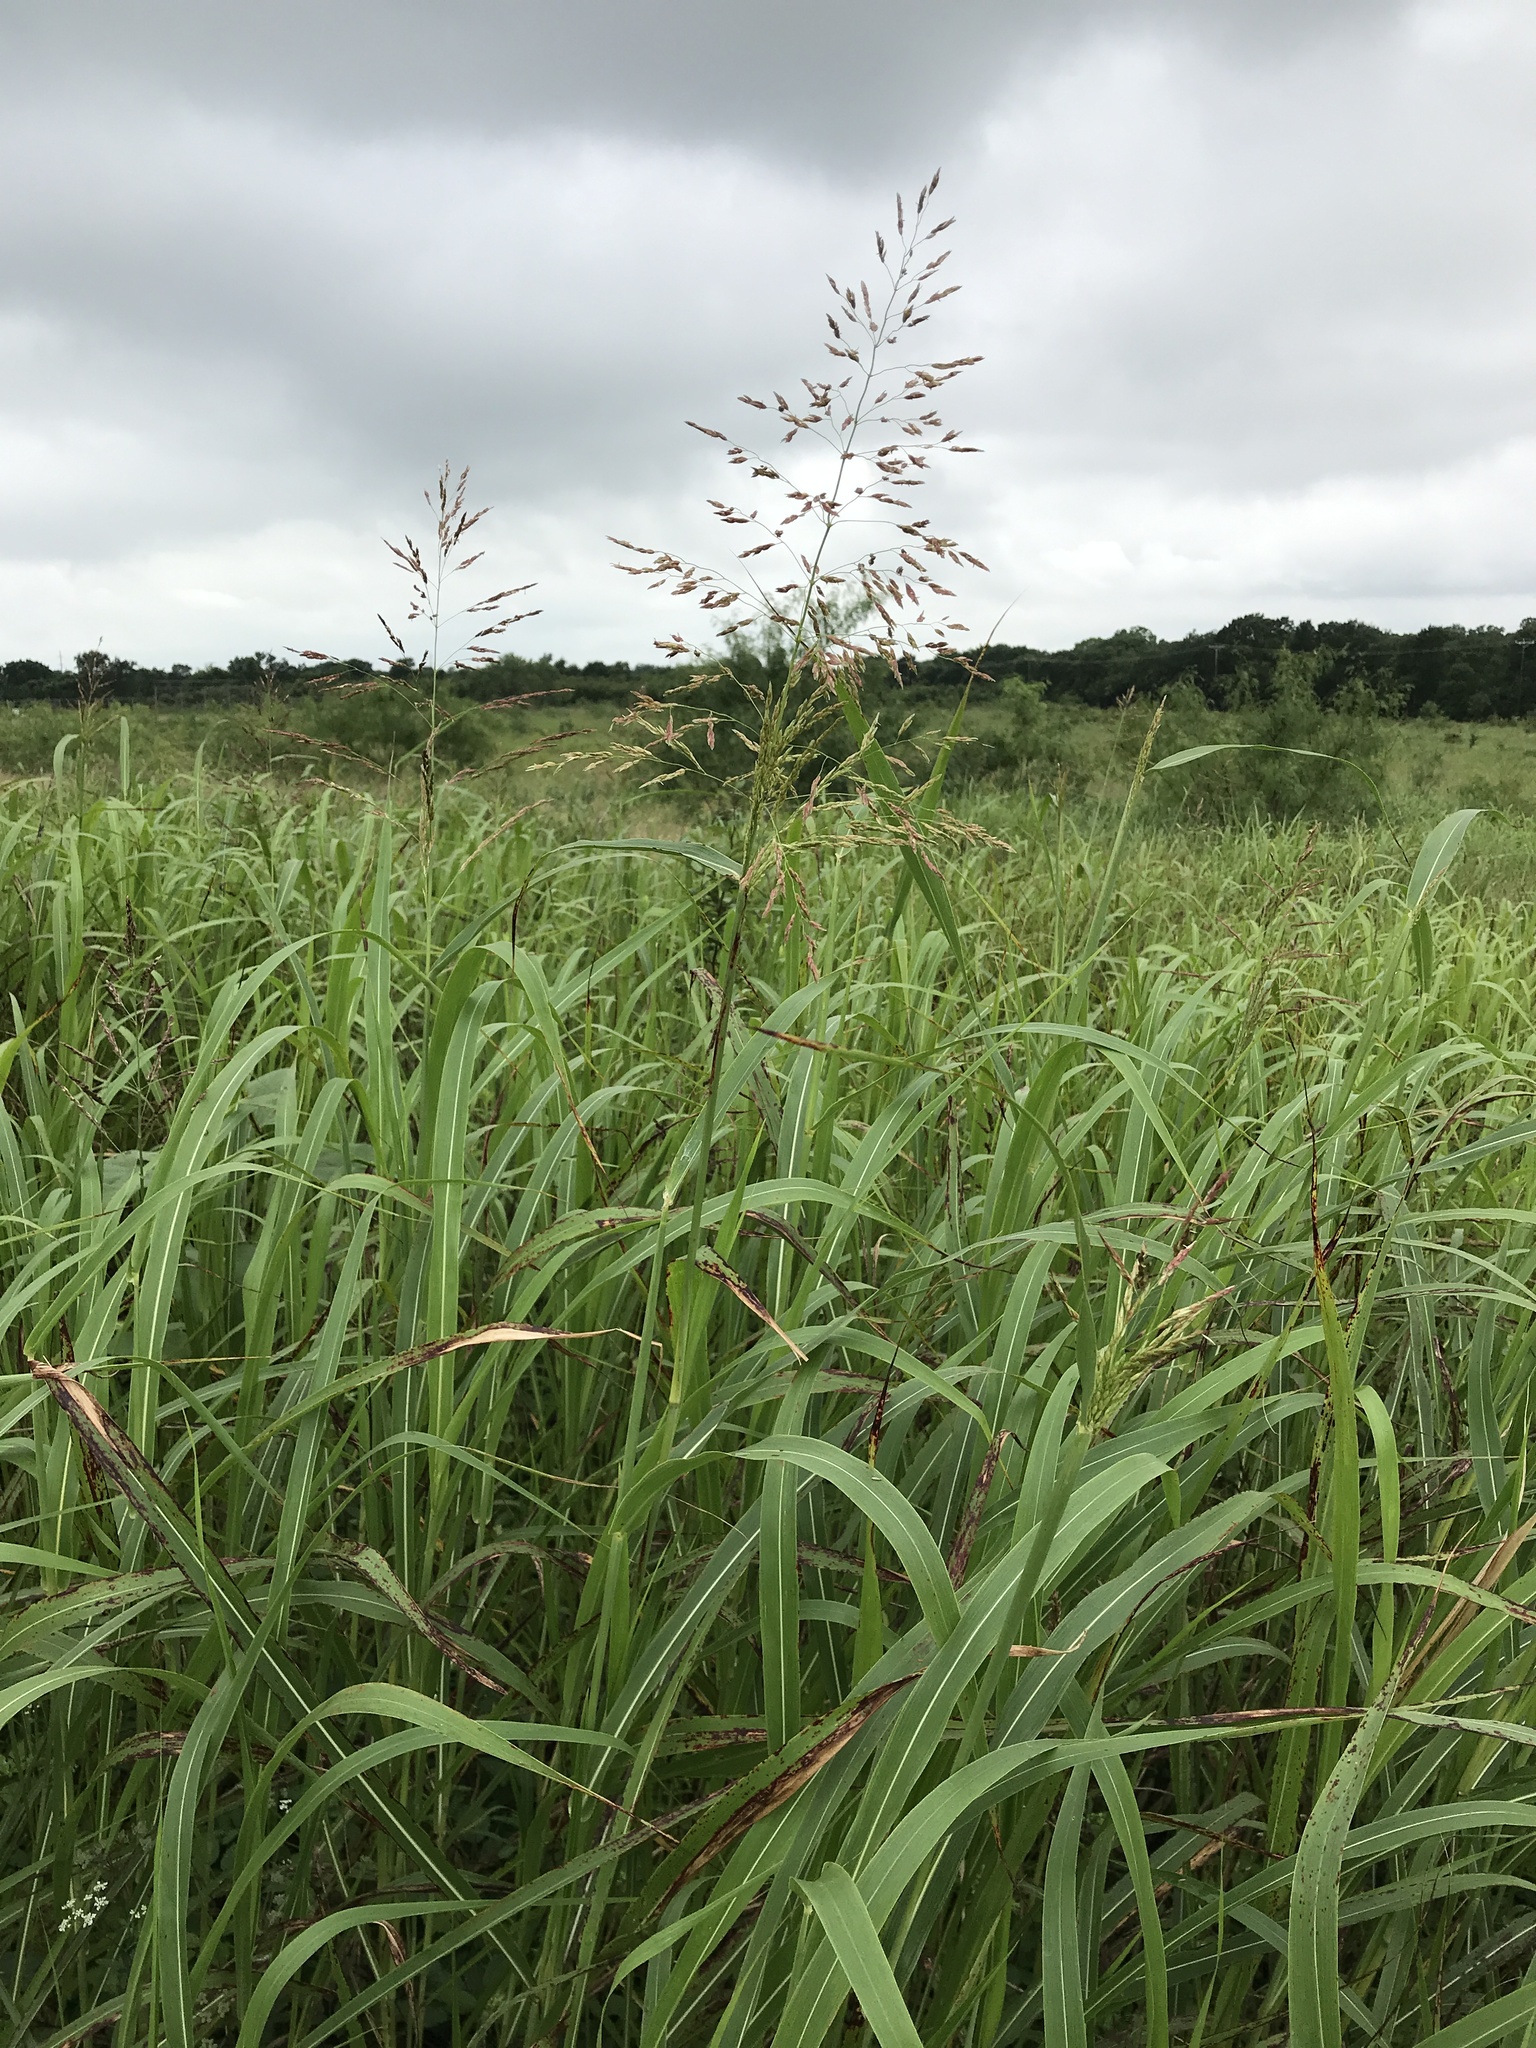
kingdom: Plantae
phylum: Tracheophyta
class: Liliopsida
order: Poales
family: Poaceae
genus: Sorghum
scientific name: Sorghum halepense
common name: Johnson-grass
